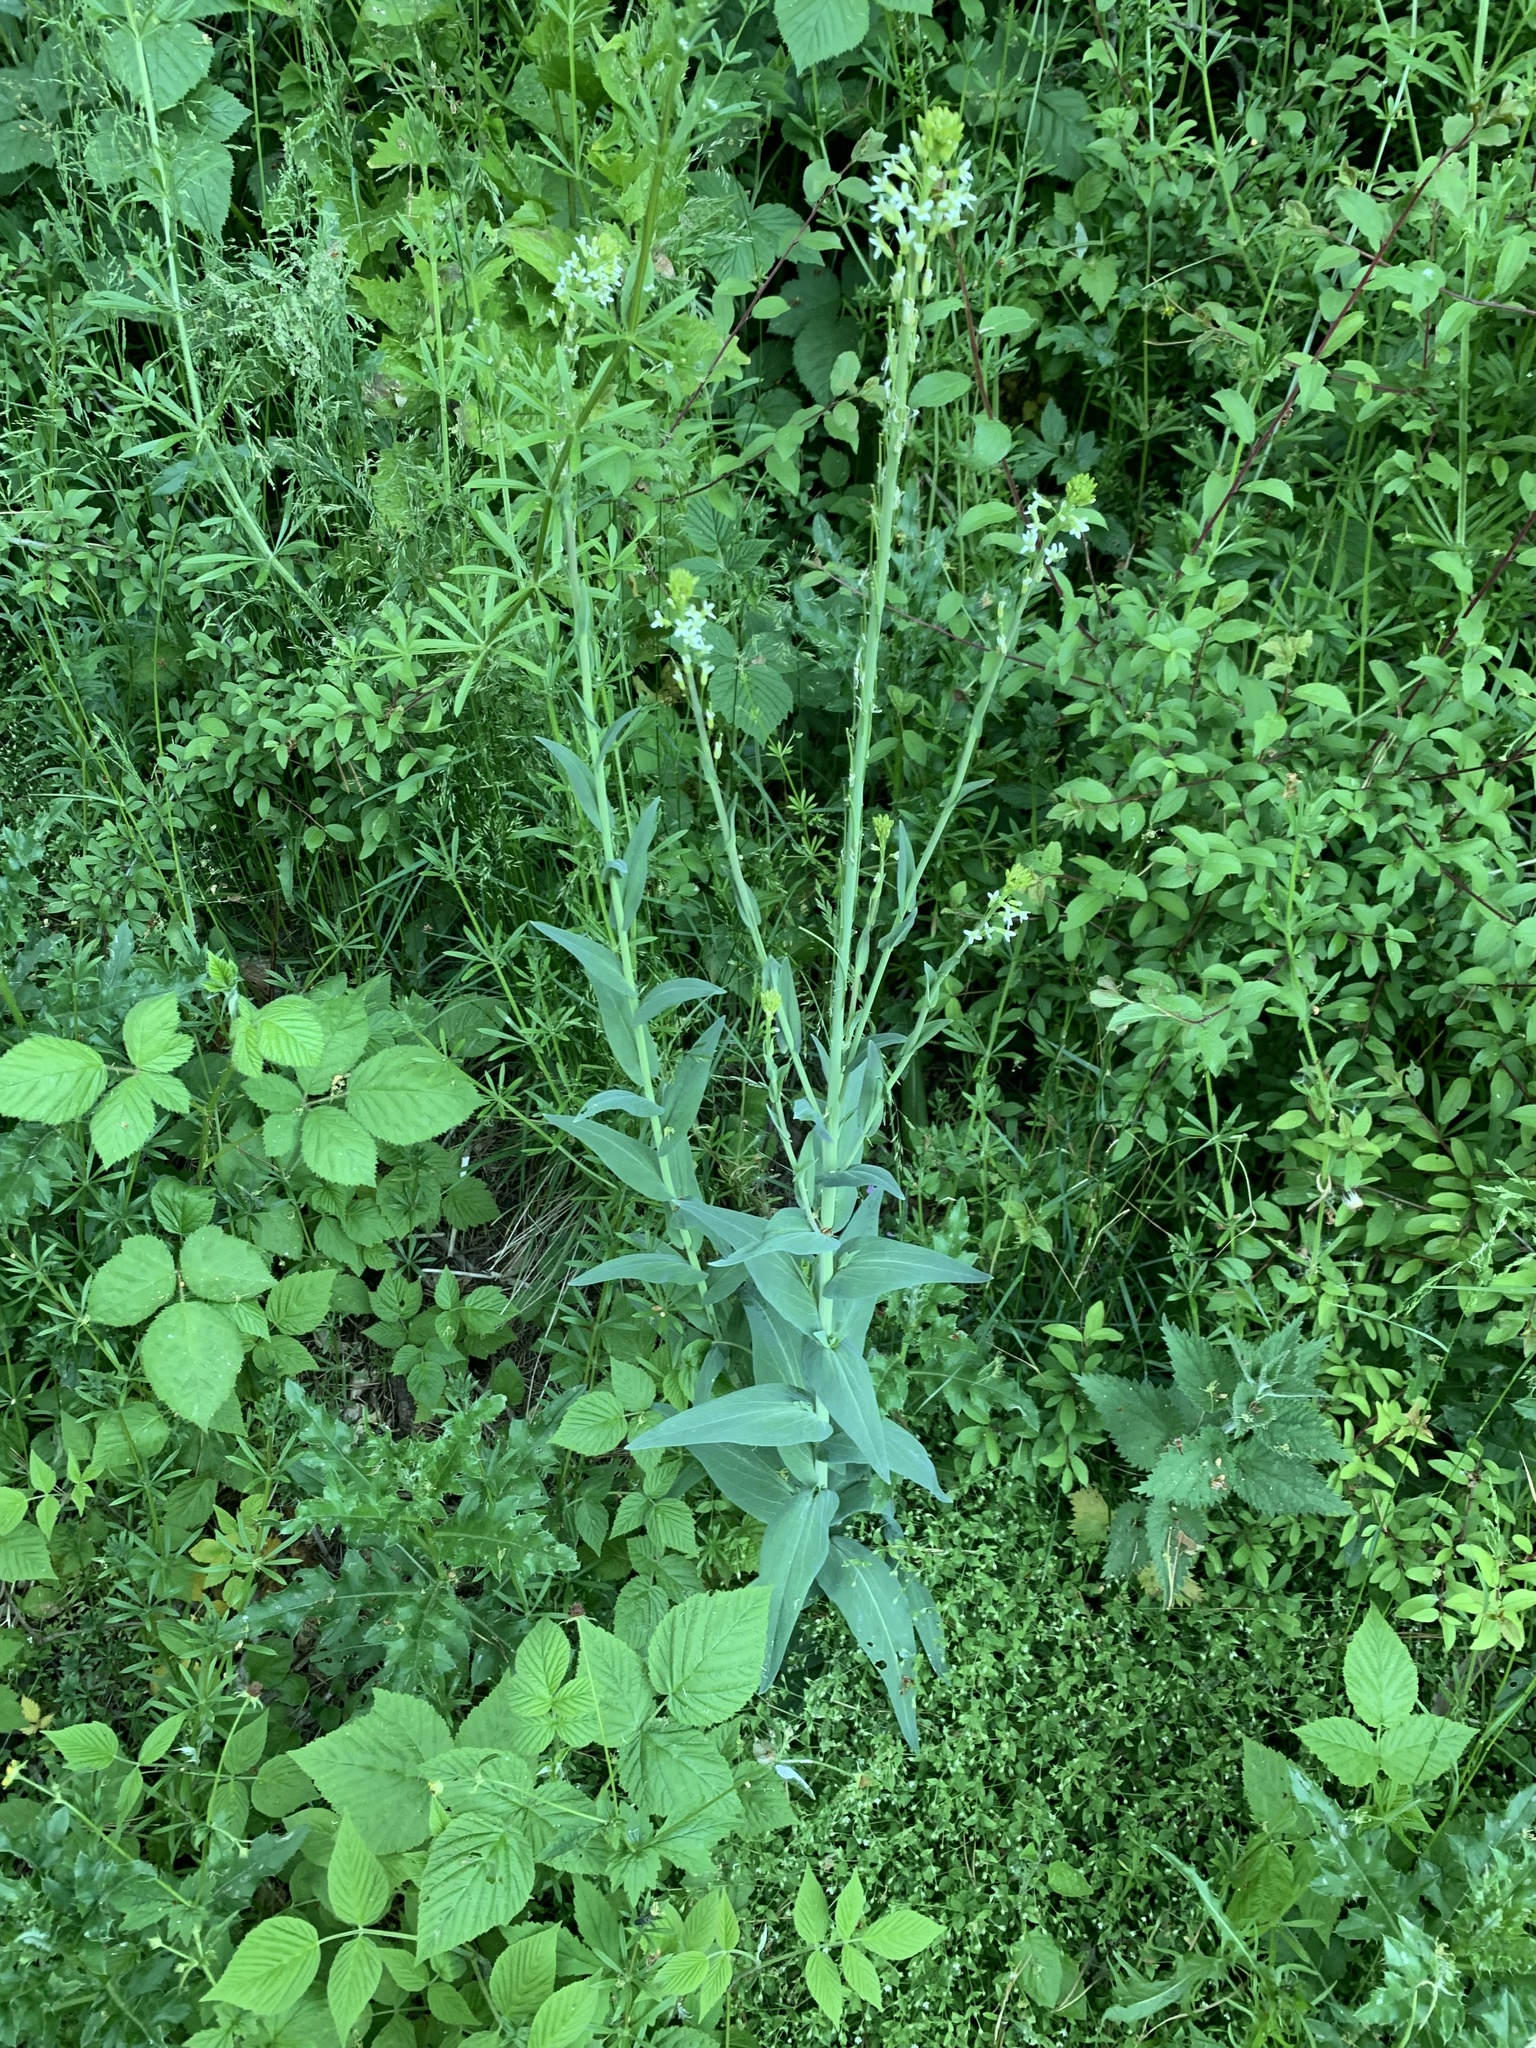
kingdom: Plantae
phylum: Tracheophyta
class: Magnoliopsida
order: Brassicales
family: Brassicaceae
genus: Turritis
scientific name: Turritis glabra
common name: Tower rockcress
